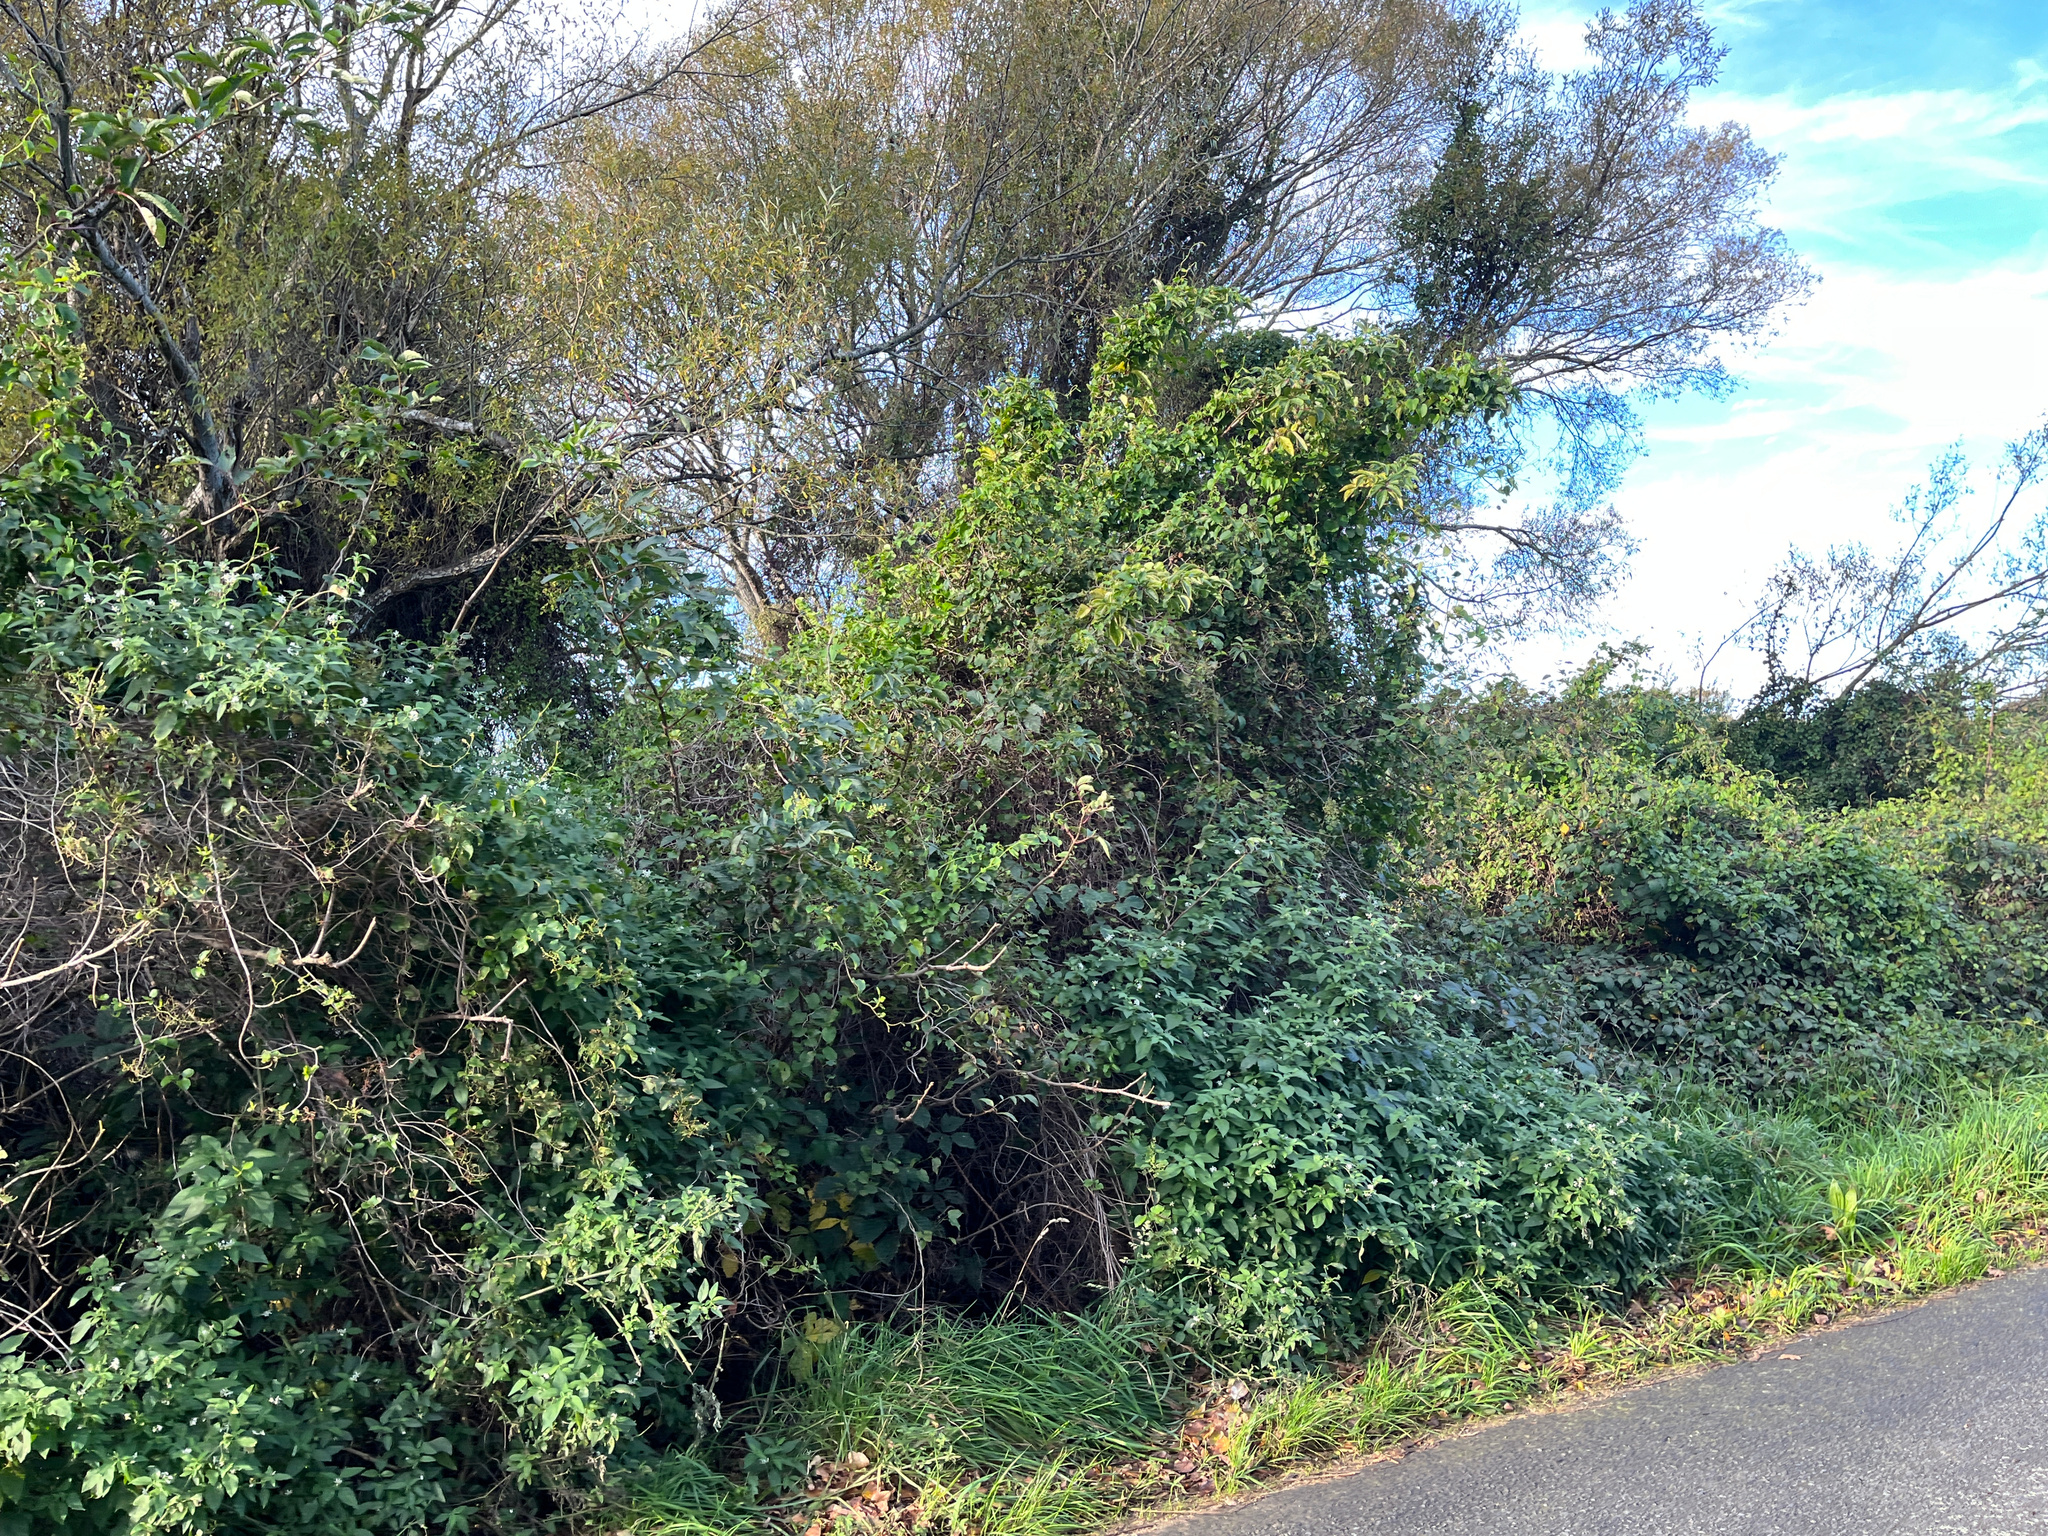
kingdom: Plantae
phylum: Tracheophyta
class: Magnoliopsida
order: Caryophyllales
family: Polygonaceae
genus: Muehlenbeckia
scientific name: Muehlenbeckia australis
